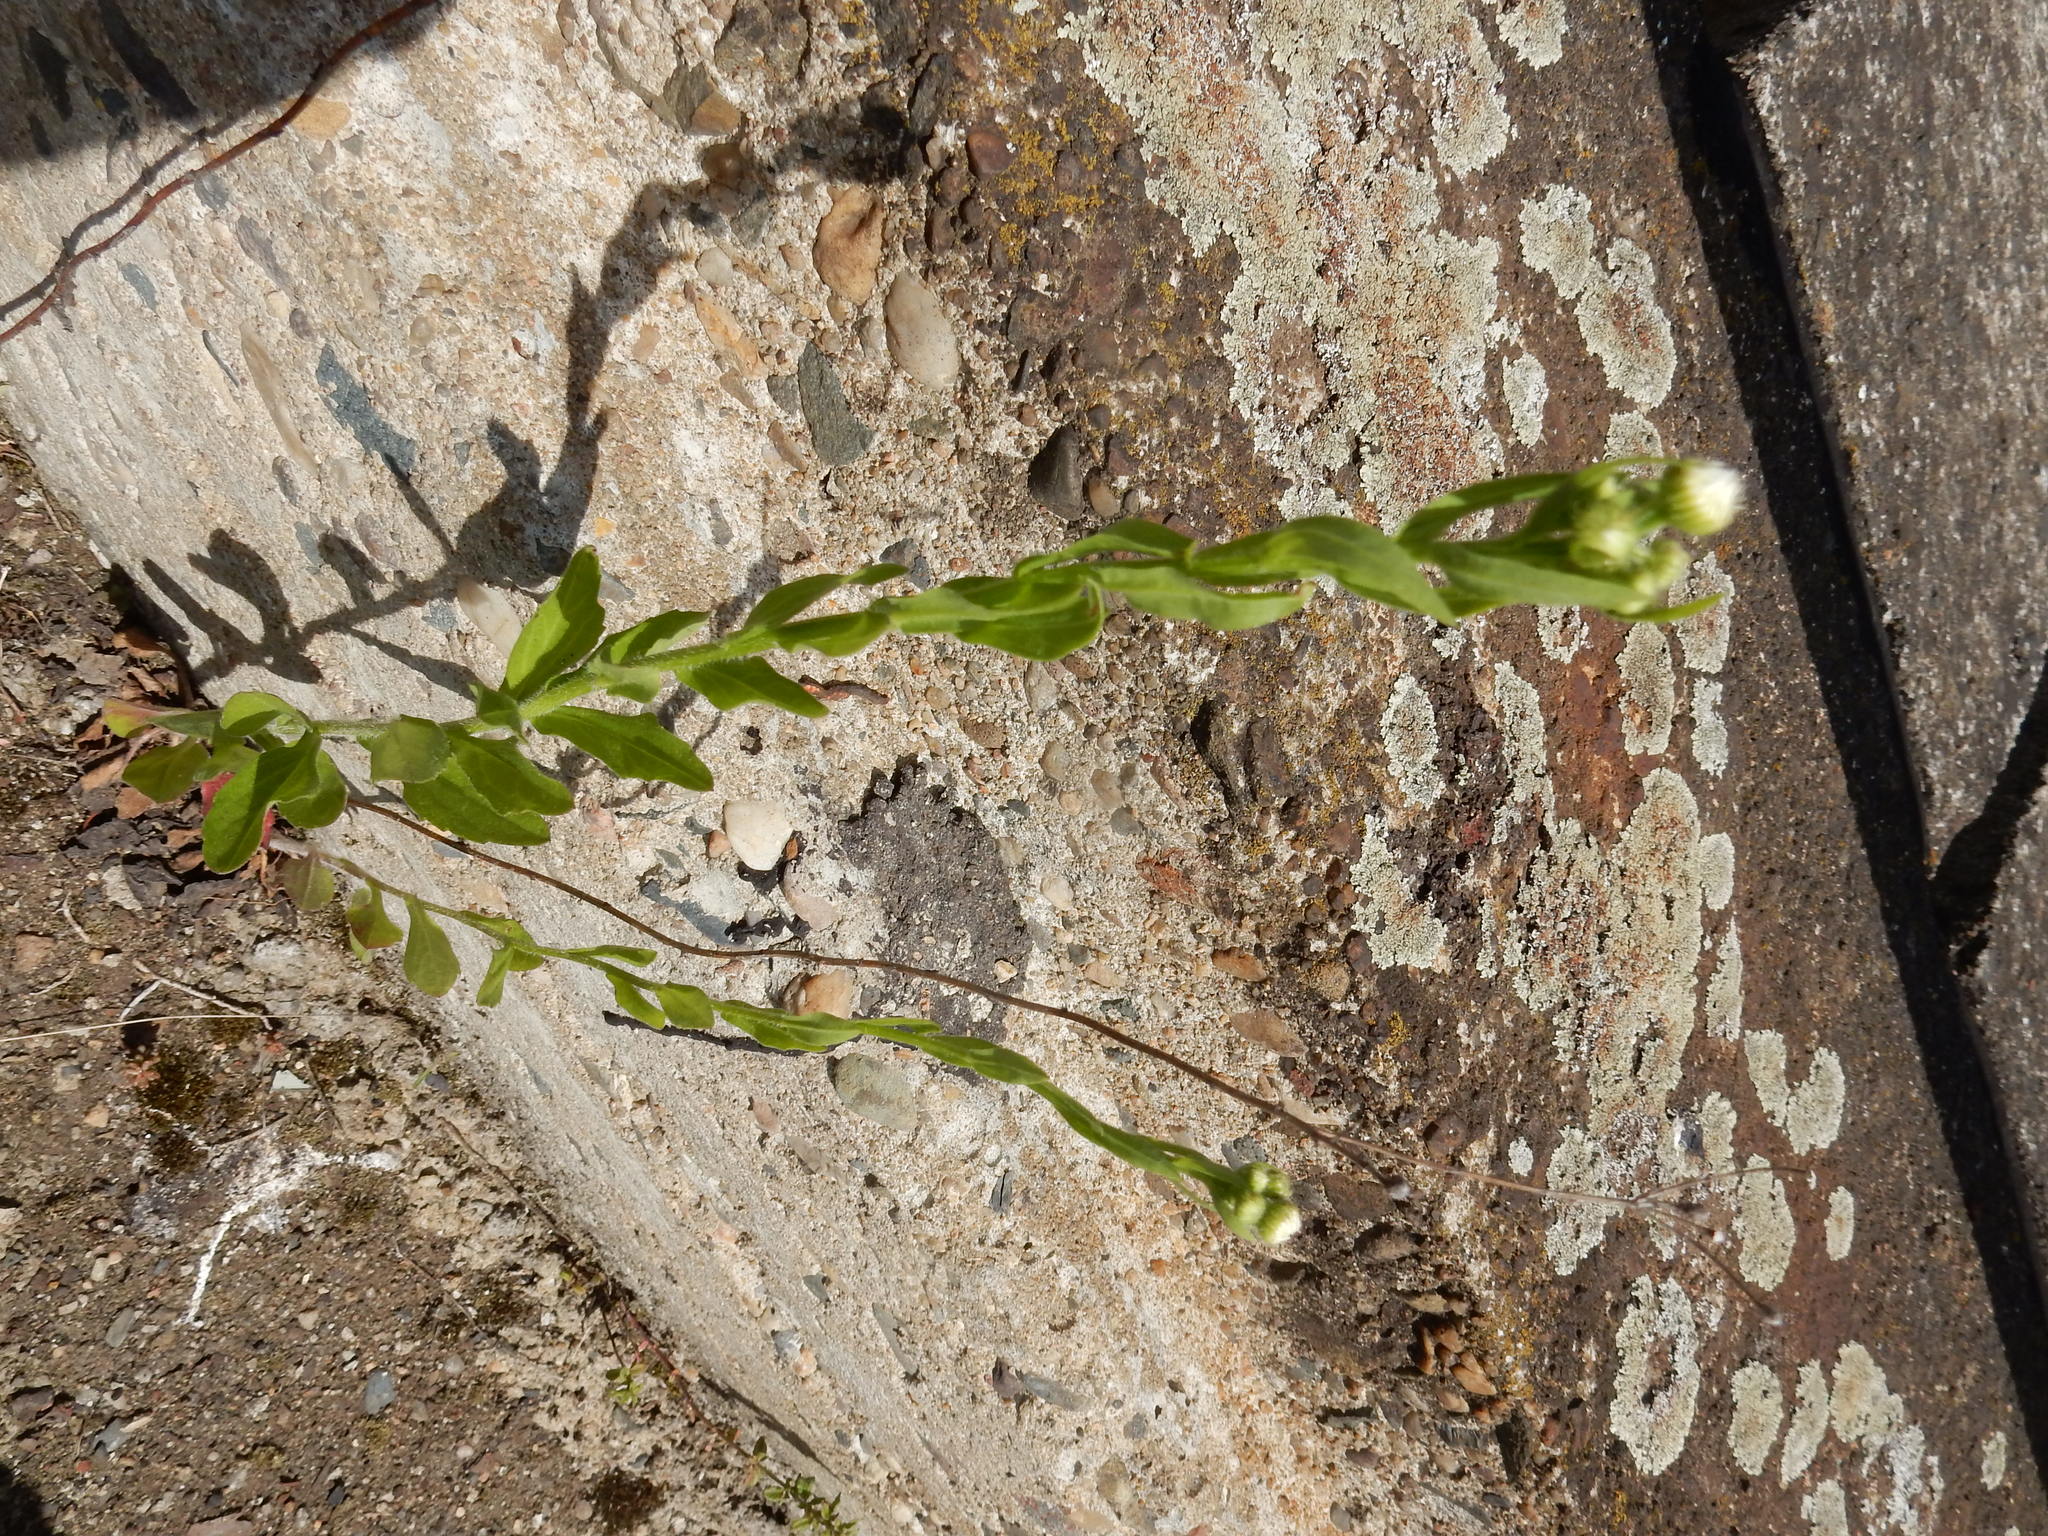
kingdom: Plantae
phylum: Tracheophyta
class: Magnoliopsida
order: Asterales
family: Asteraceae
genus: Erigeron
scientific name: Erigeron annuus
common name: Tall fleabane
